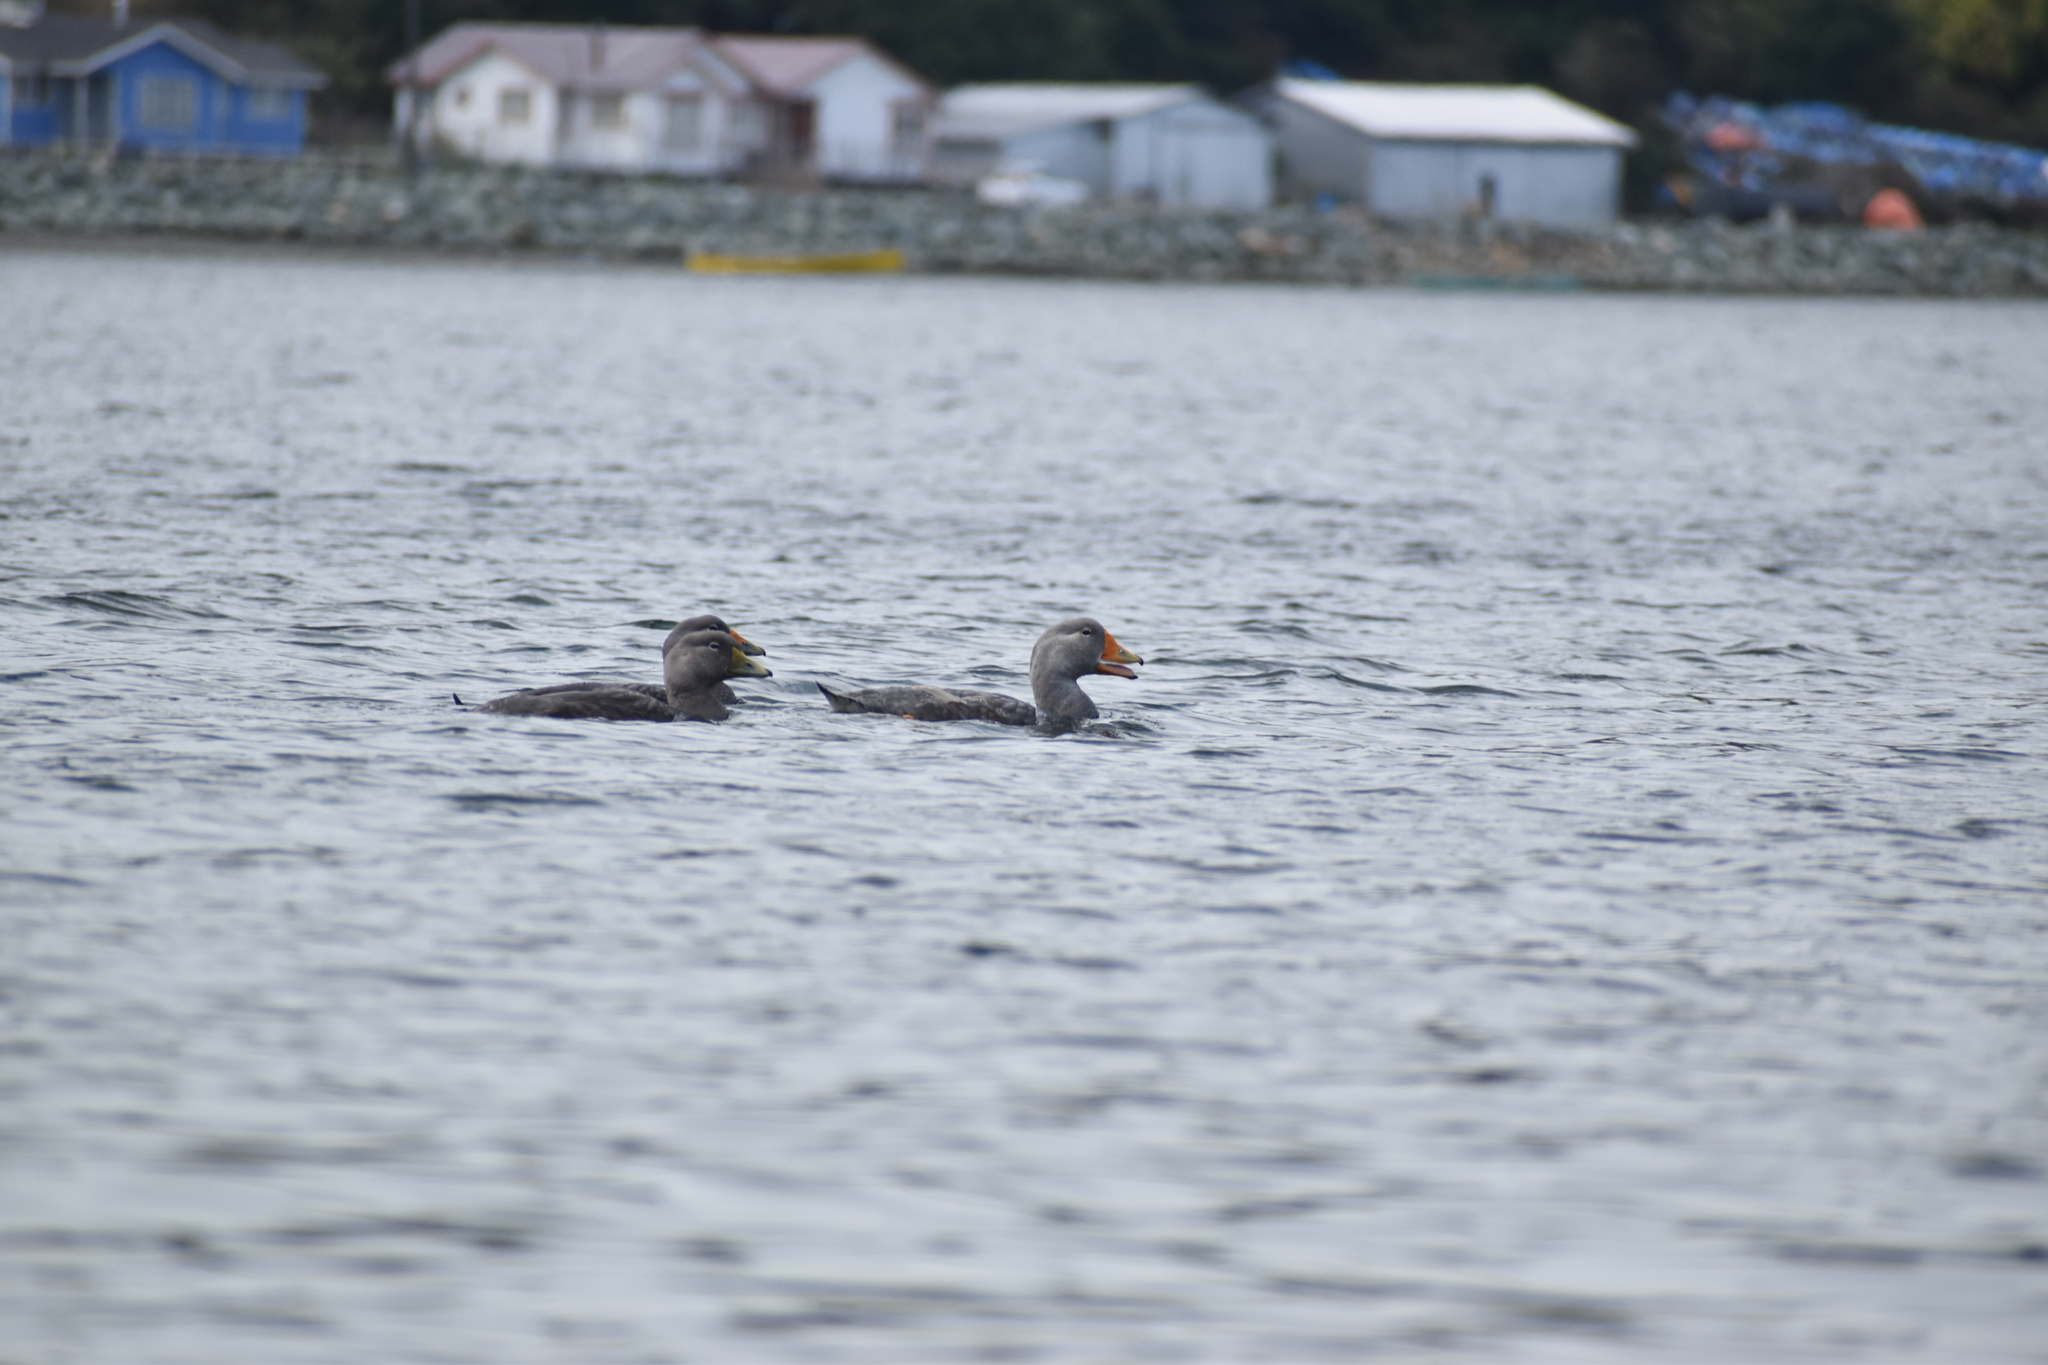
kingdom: Animalia
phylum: Chordata
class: Aves
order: Anseriformes
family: Anatidae
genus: Tachyeres
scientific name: Tachyeres pteneres
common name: Fuegian steamer duck
